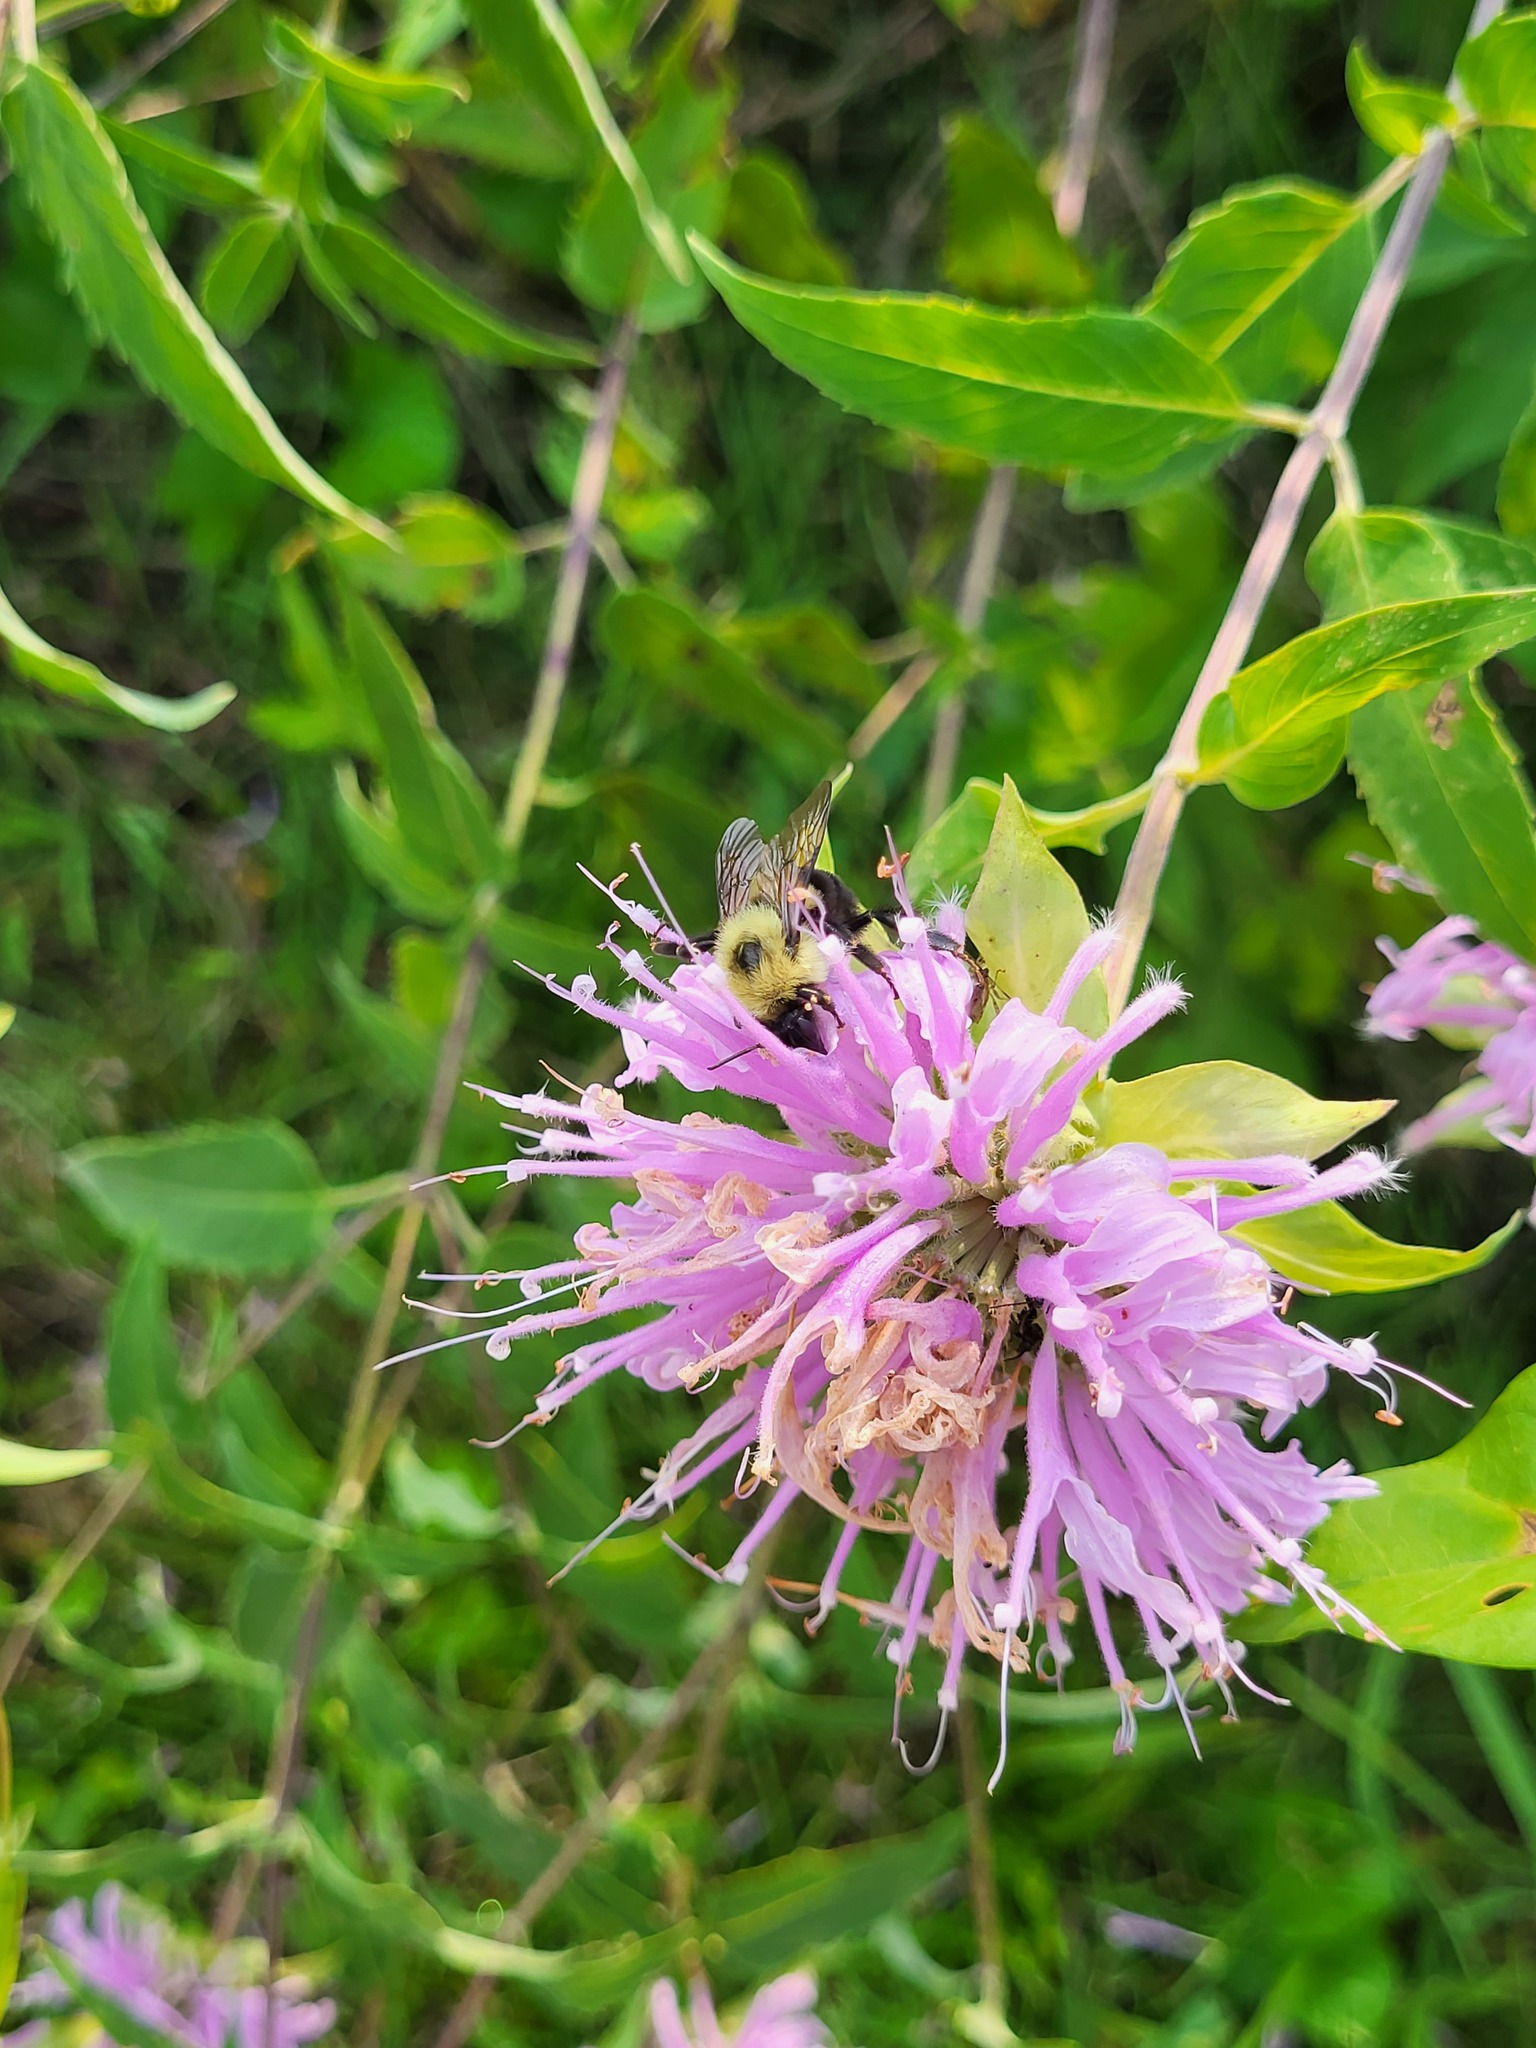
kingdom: Animalia
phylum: Arthropoda
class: Insecta
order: Hymenoptera
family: Apidae
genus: Bombus
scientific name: Bombus bimaculatus
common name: Two-spotted bumble bee
